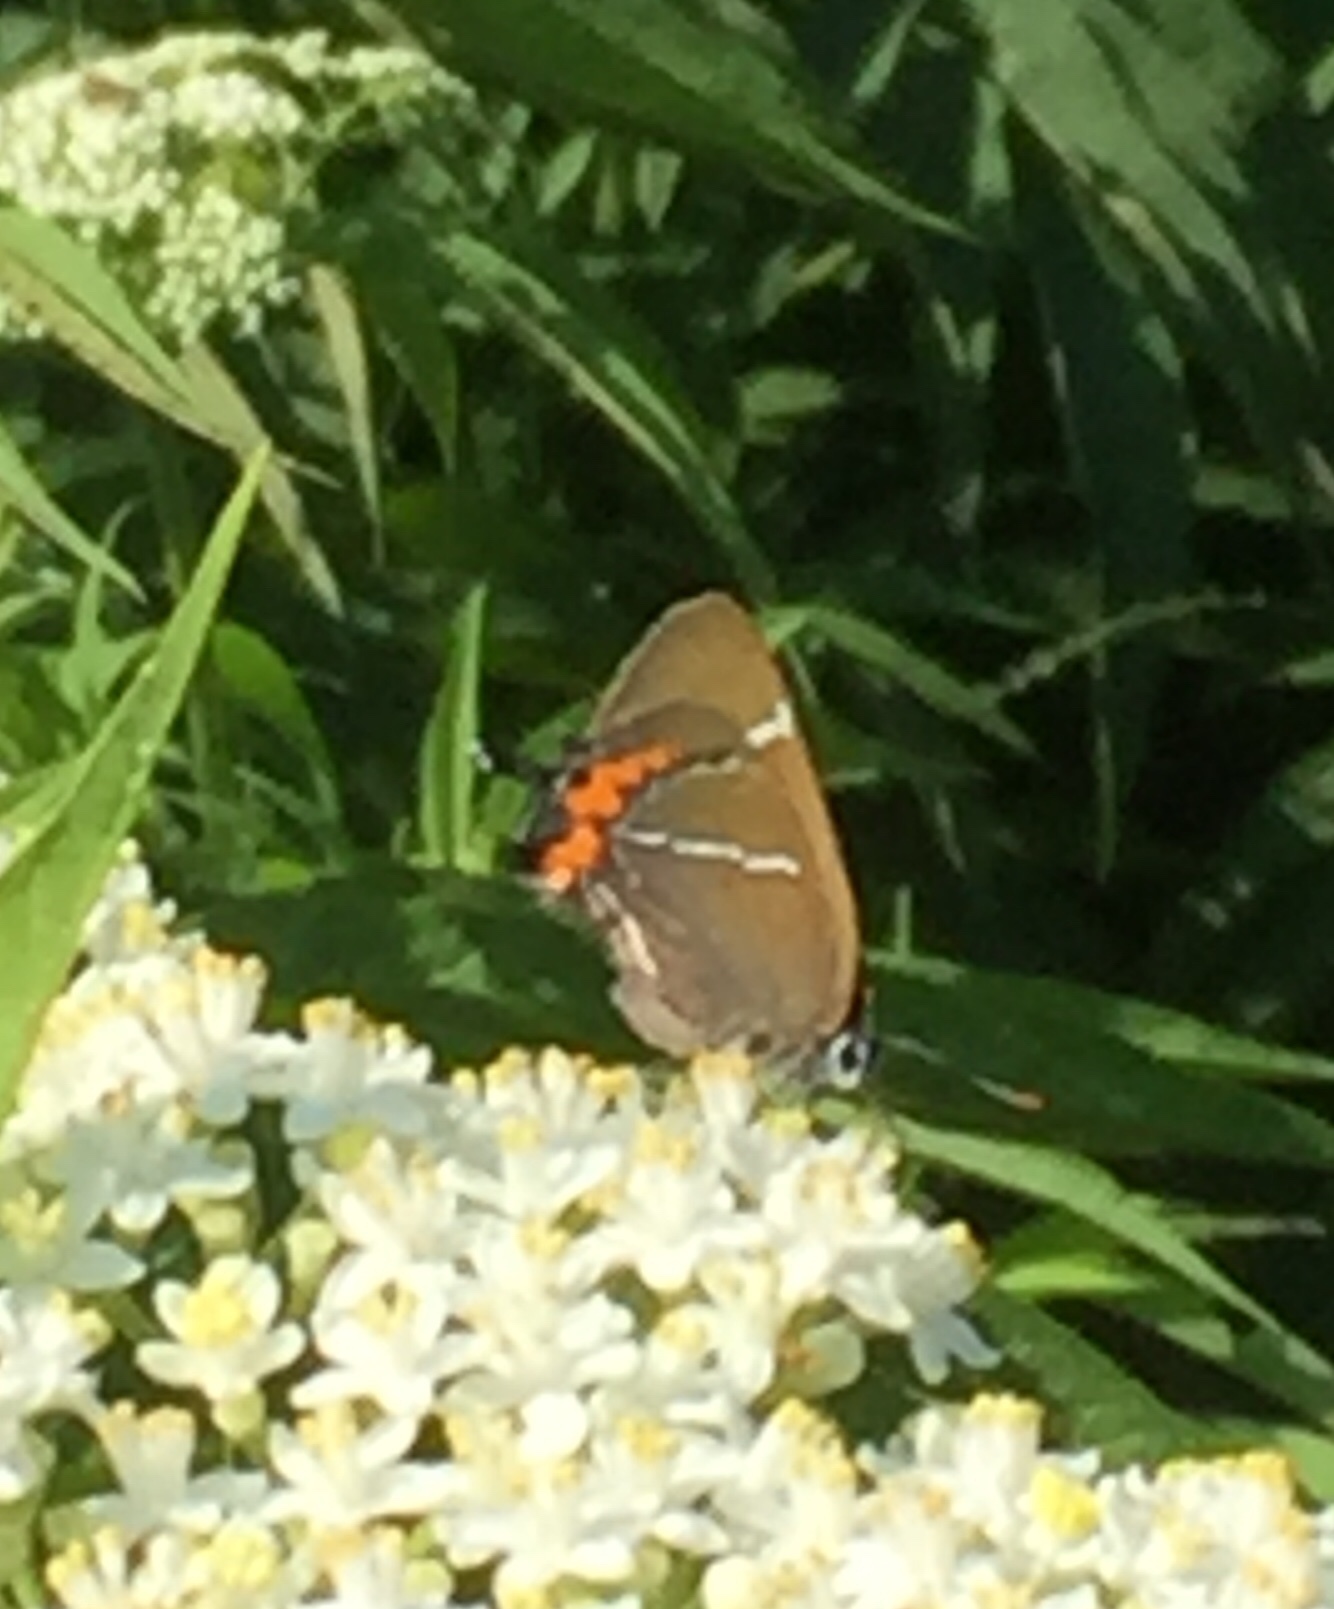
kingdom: Animalia
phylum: Arthropoda
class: Insecta
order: Lepidoptera
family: Lycaenidae
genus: Satyrium
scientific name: Satyrium w-album
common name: White-letter hairstreak
